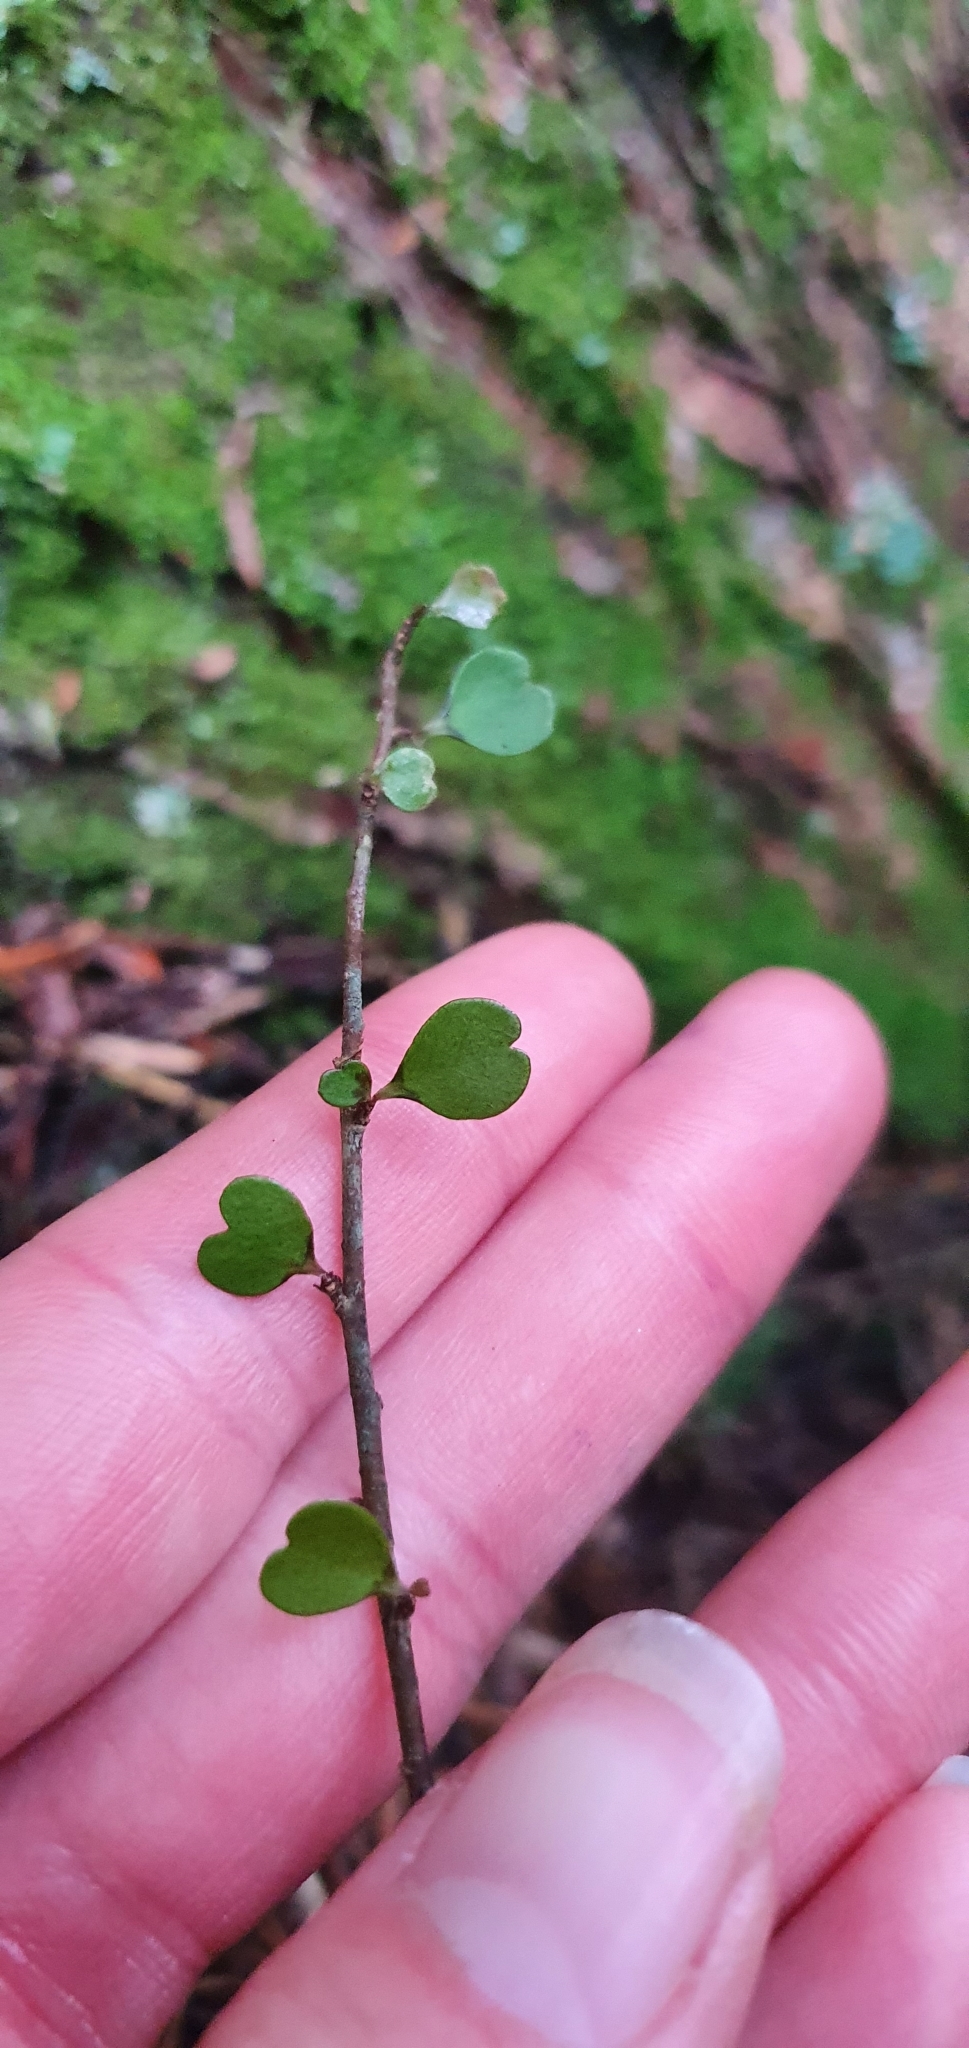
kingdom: Plantae
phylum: Tracheophyta
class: Magnoliopsida
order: Ericales
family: Primulaceae
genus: Myrsine
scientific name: Myrsine divaricata
